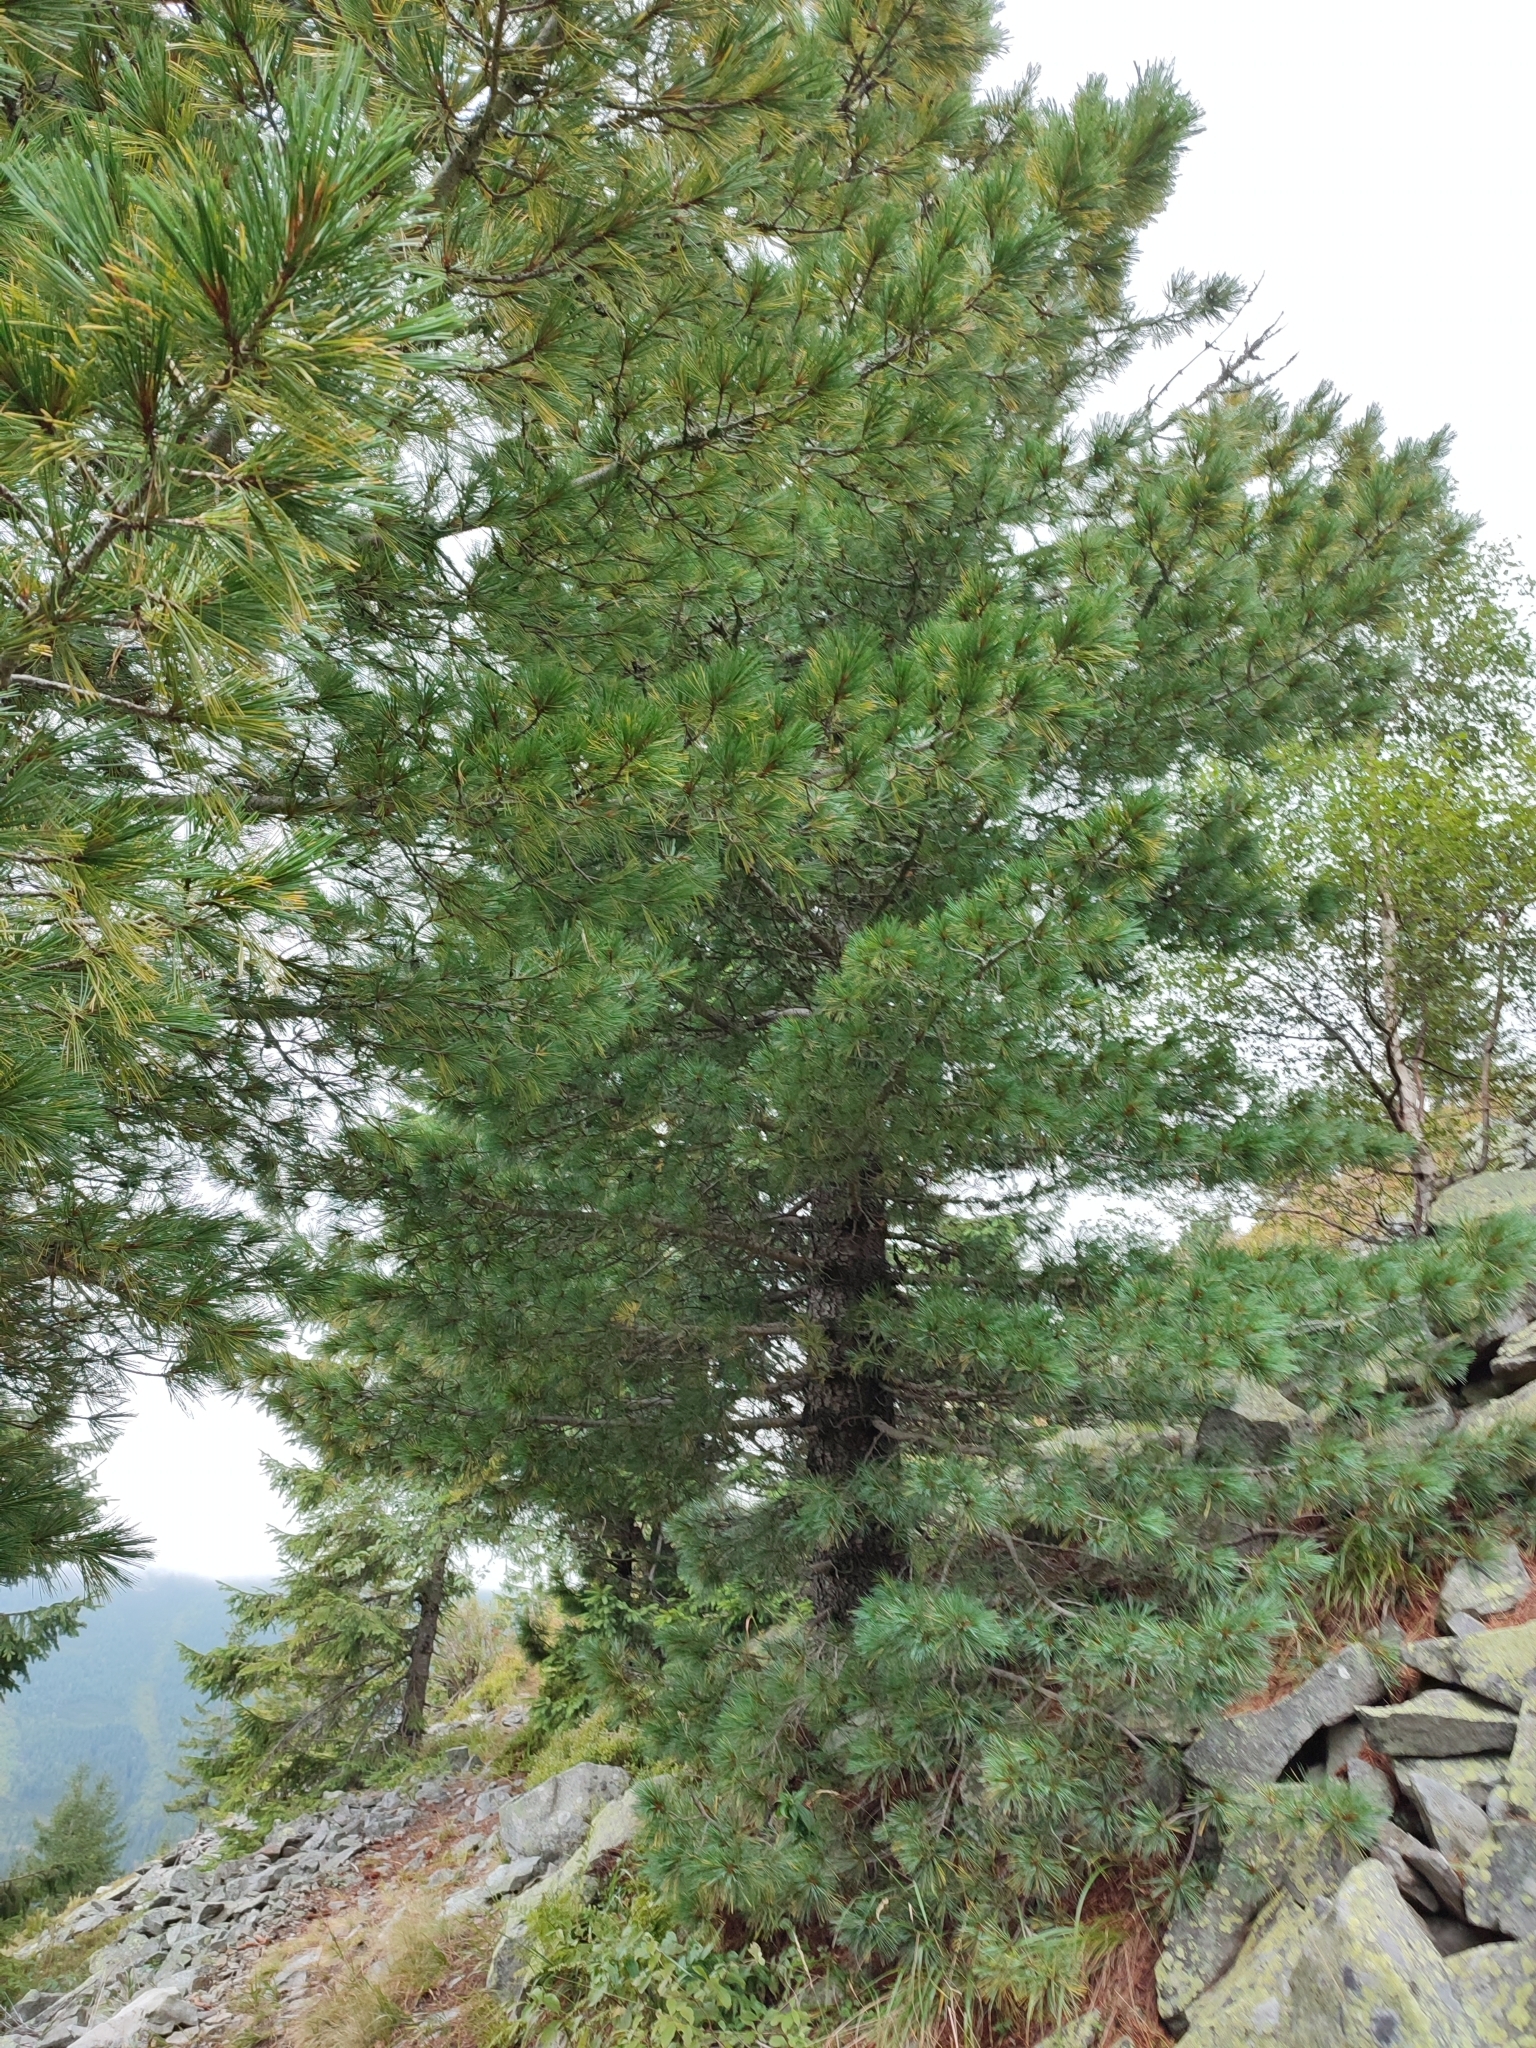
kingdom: Plantae
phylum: Tracheophyta
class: Pinopsida
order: Pinales
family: Pinaceae
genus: Pinus
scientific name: Pinus cembra
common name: Arolla pine
